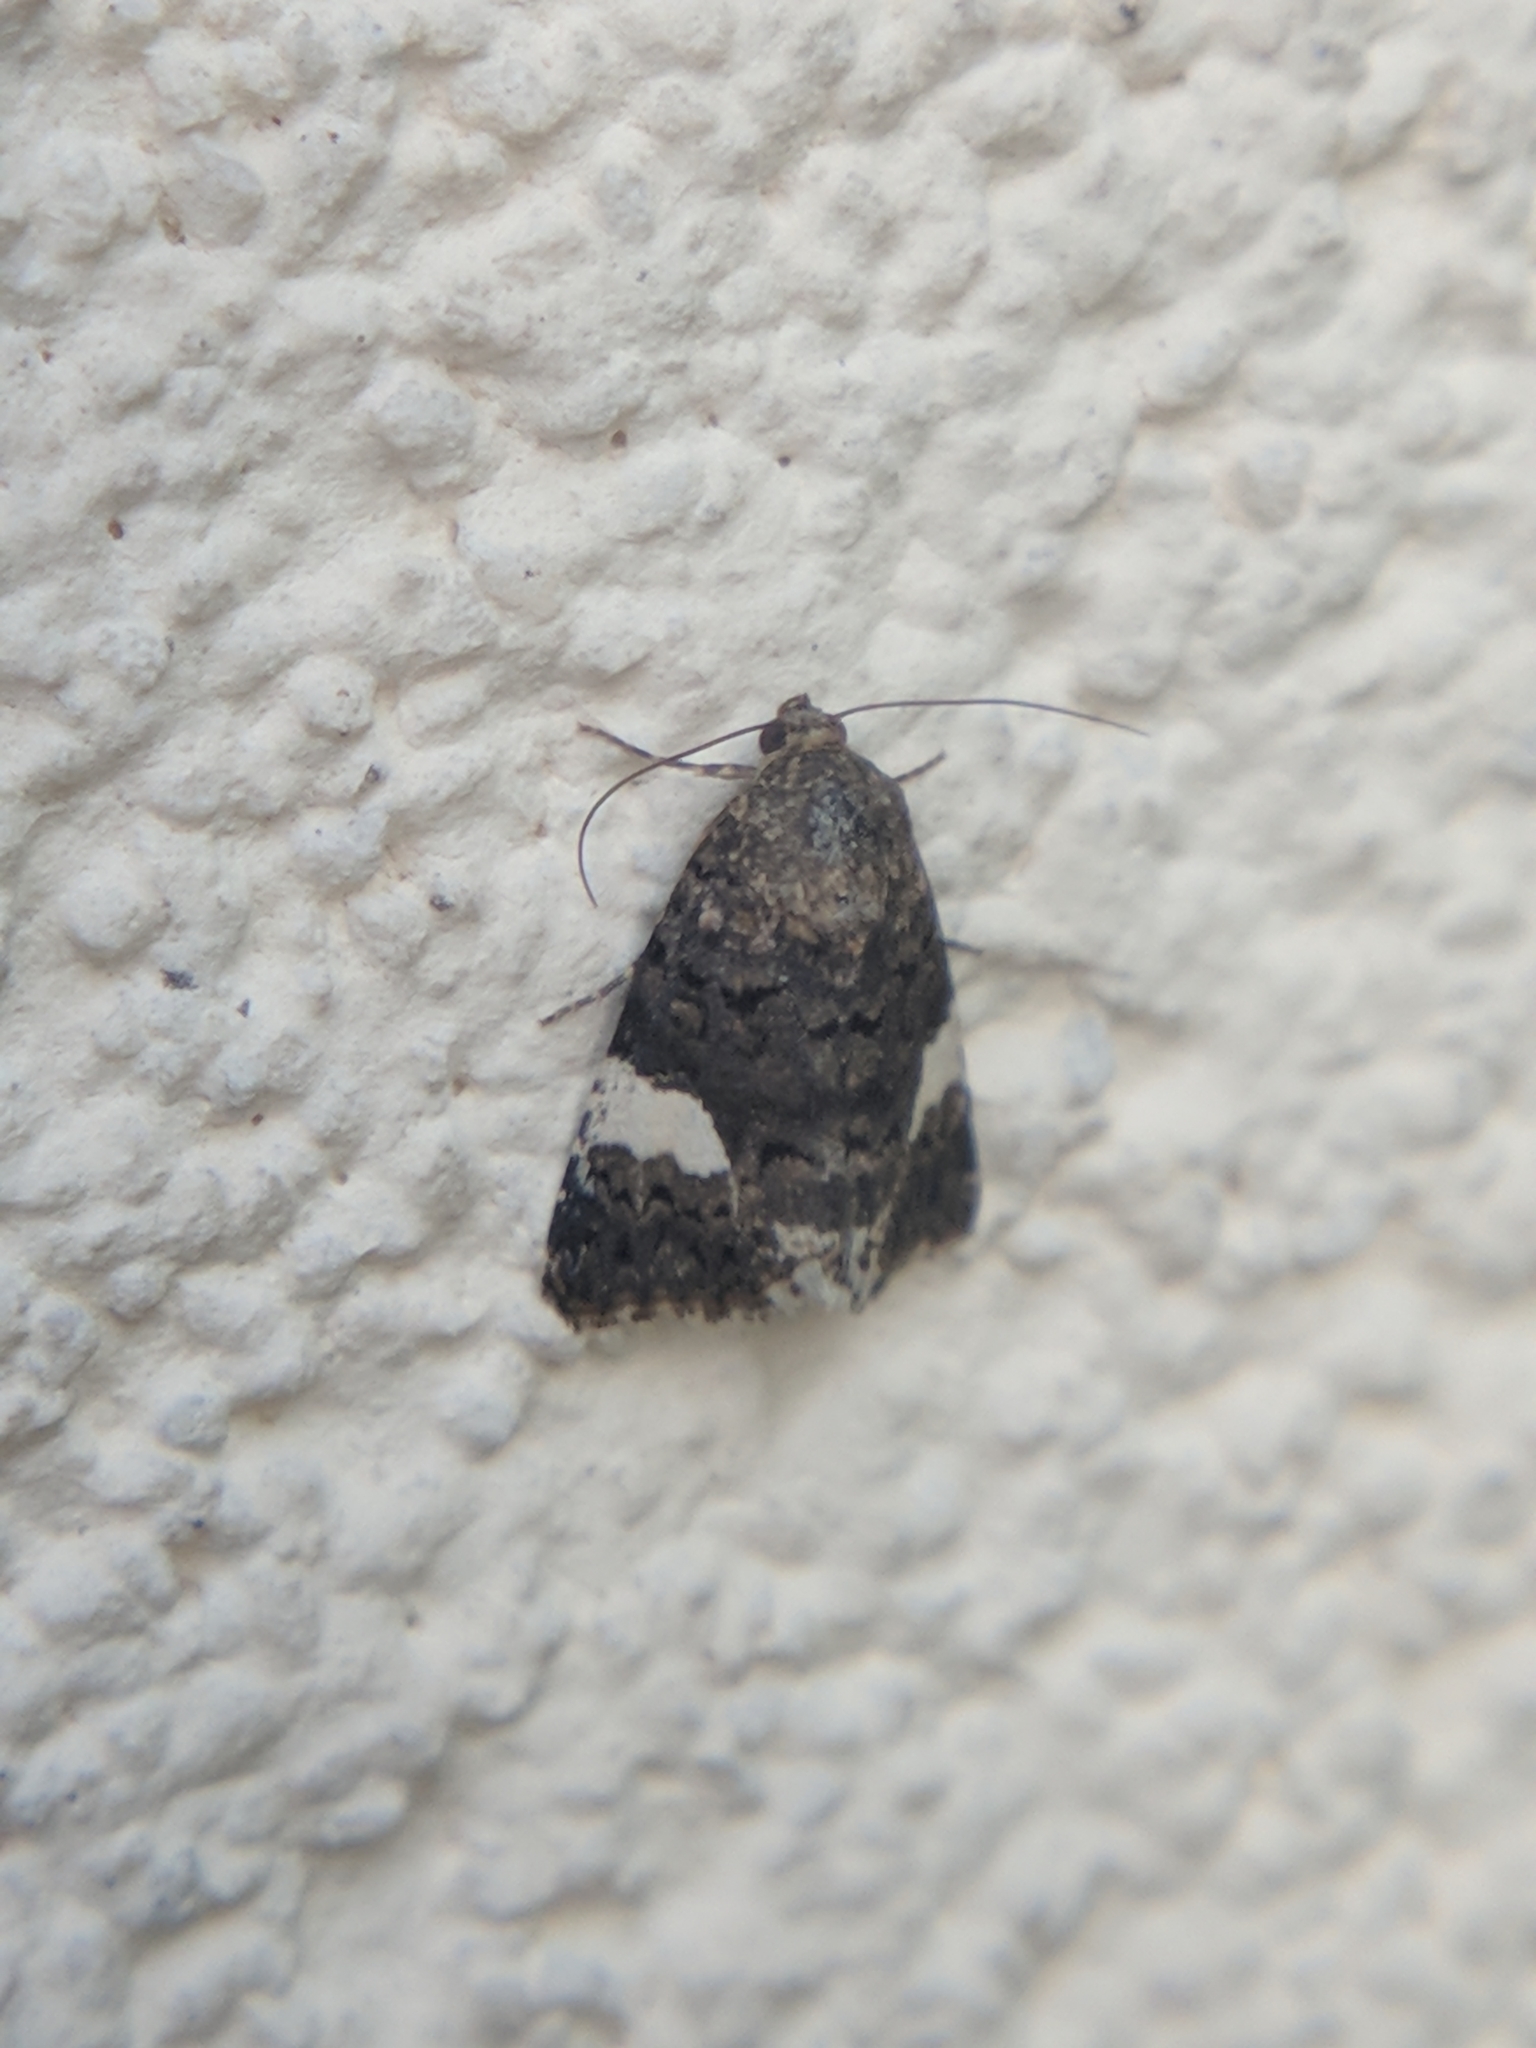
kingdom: Animalia
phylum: Arthropoda
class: Insecta
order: Lepidoptera
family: Erebidae
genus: Tyta
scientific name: Tyta luctuosa
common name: Four-spotted
